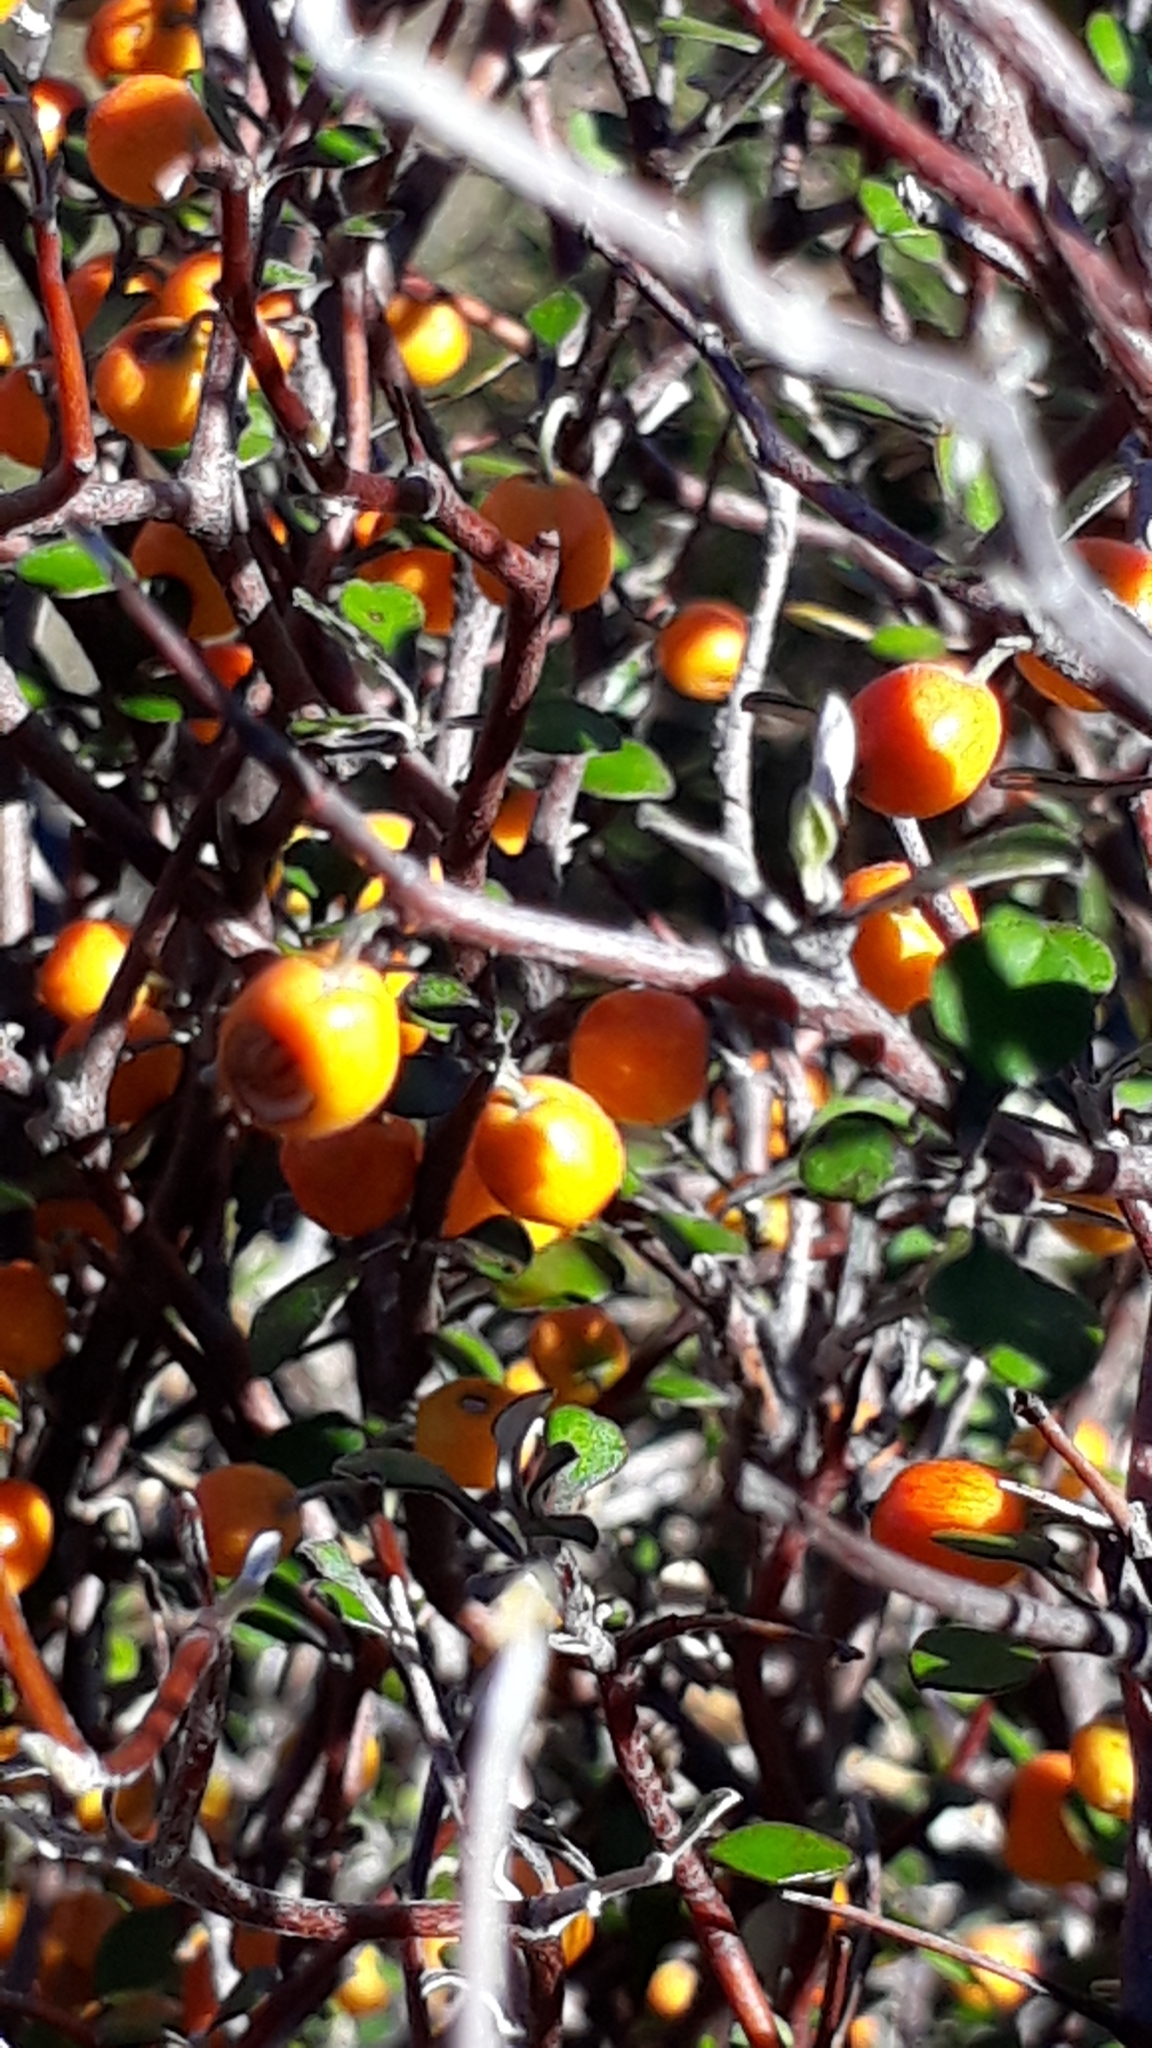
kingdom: Plantae
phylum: Tracheophyta
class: Magnoliopsida
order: Asterales
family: Argophyllaceae
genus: Corokia
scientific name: Corokia cotoneaster
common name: Wire nettingbush
